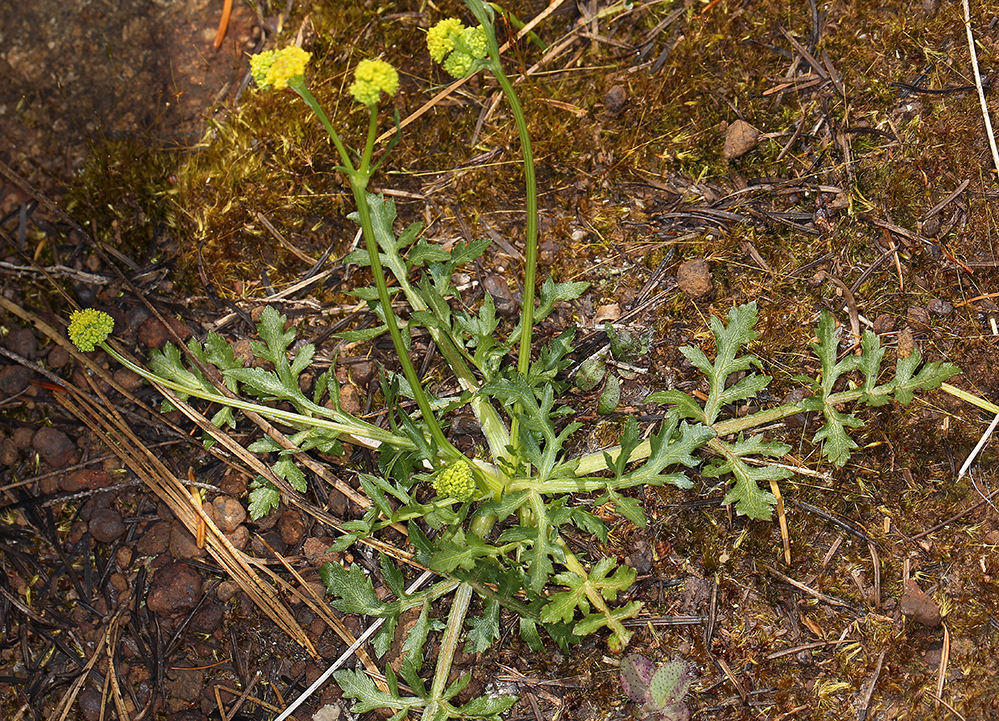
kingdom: Plantae
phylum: Tracheophyta
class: Magnoliopsida
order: Apiales
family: Apiaceae
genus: Sanicula
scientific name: Sanicula peckiana
